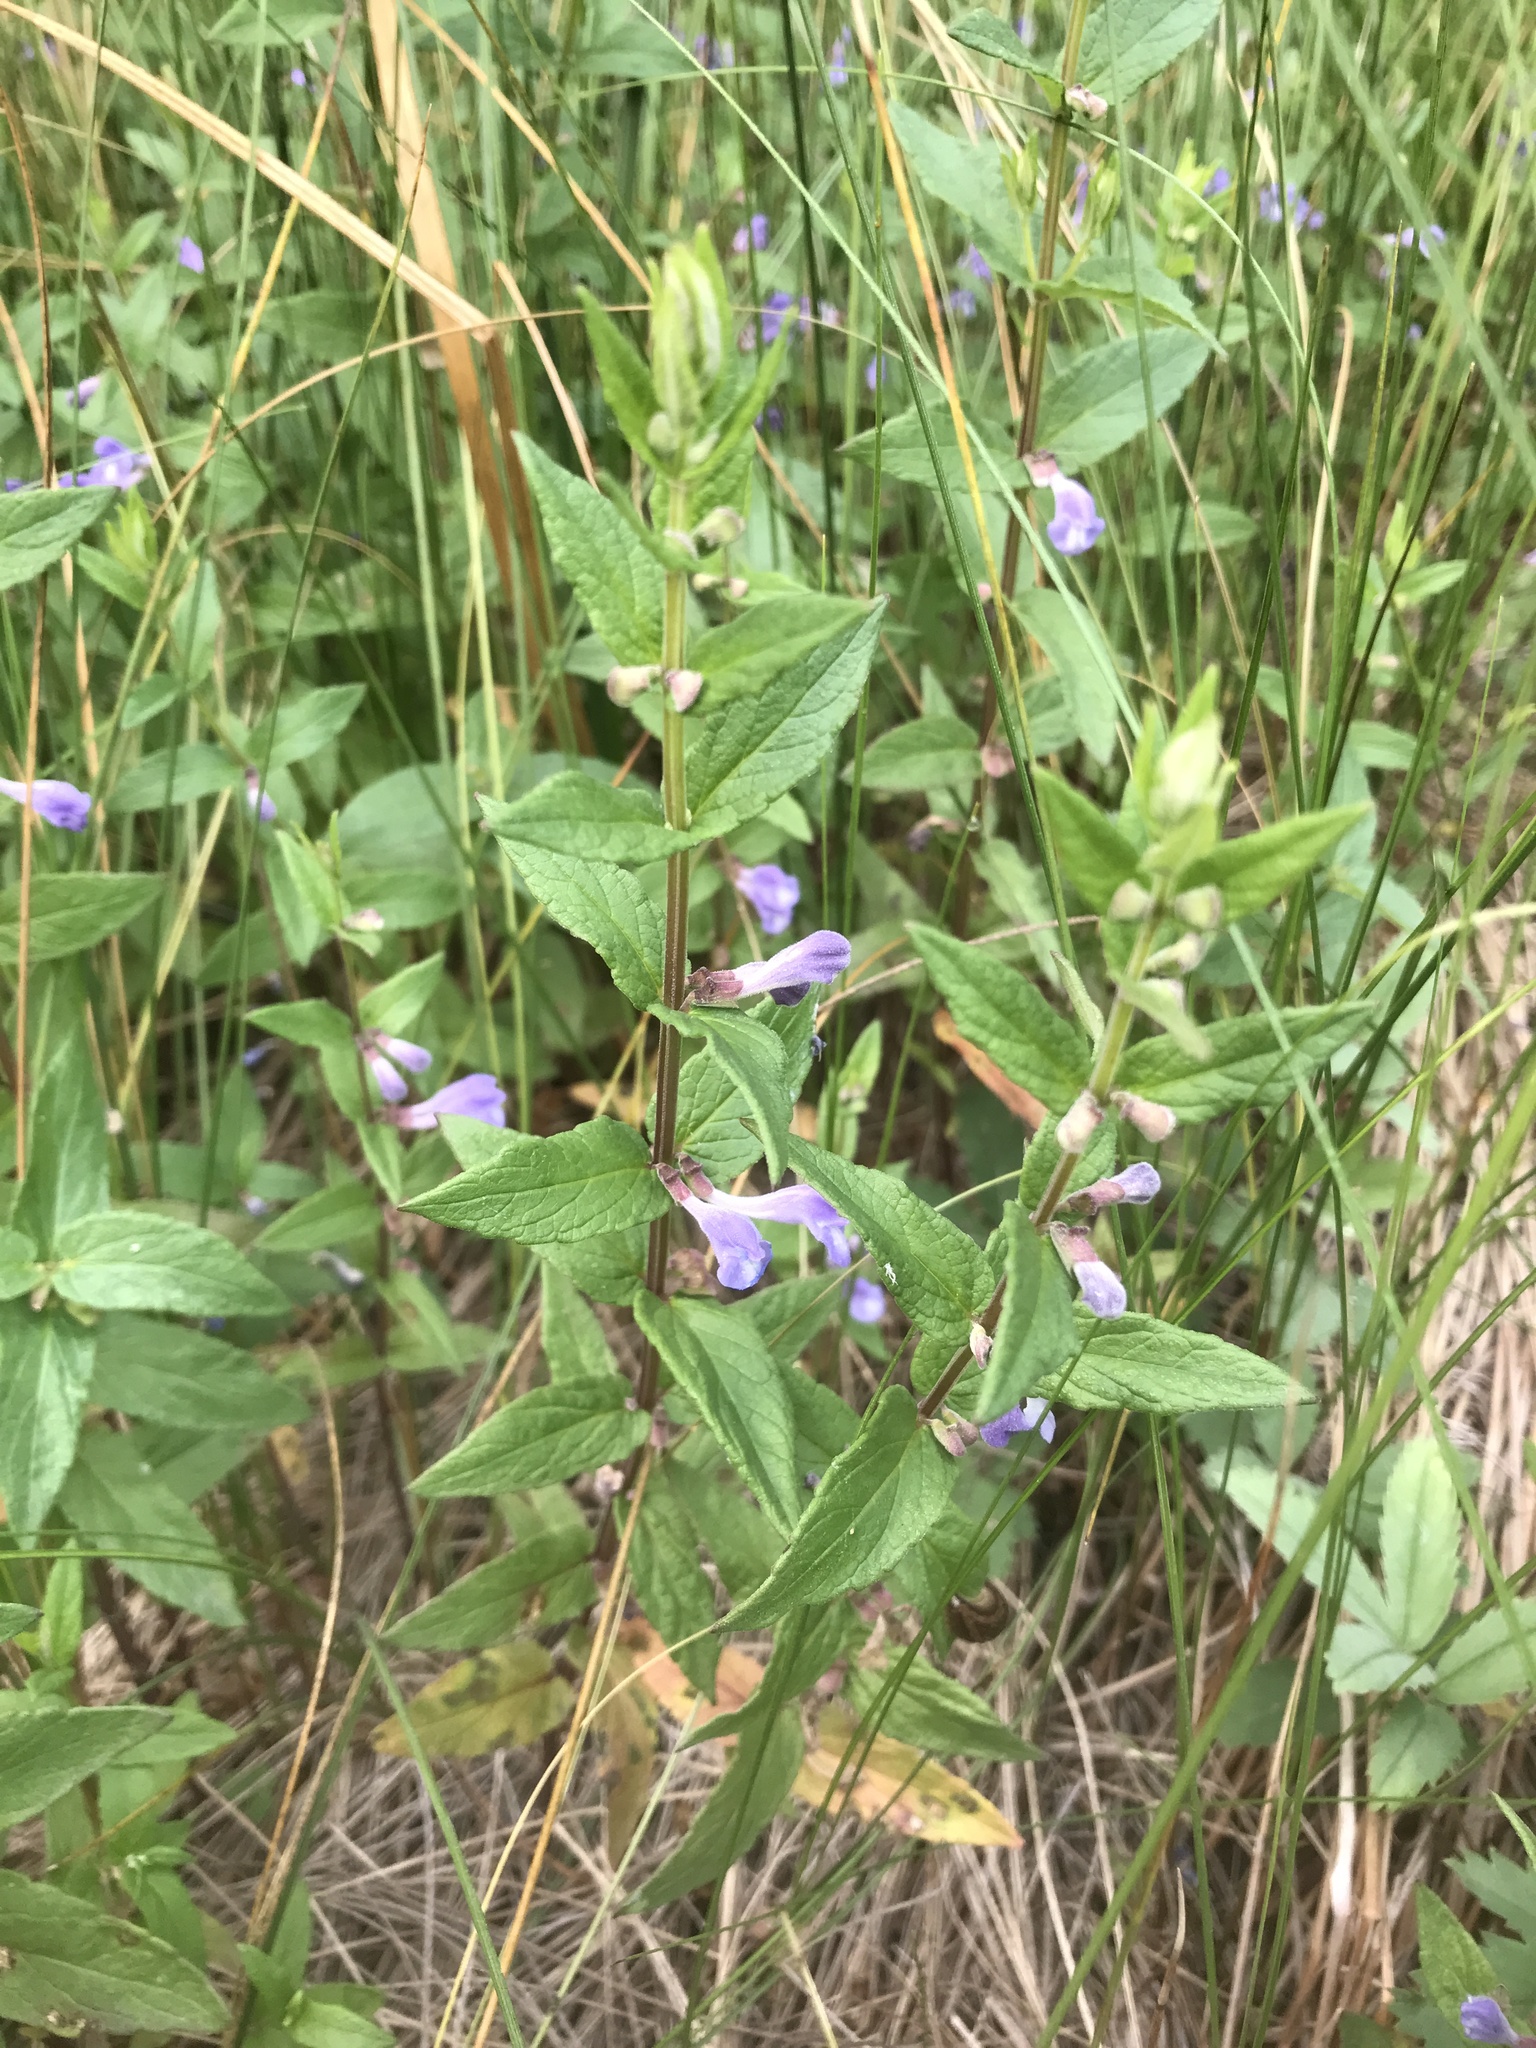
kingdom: Plantae
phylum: Tracheophyta
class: Magnoliopsida
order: Lamiales
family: Lamiaceae
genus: Scutellaria
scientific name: Scutellaria galericulata
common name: Skullcap
